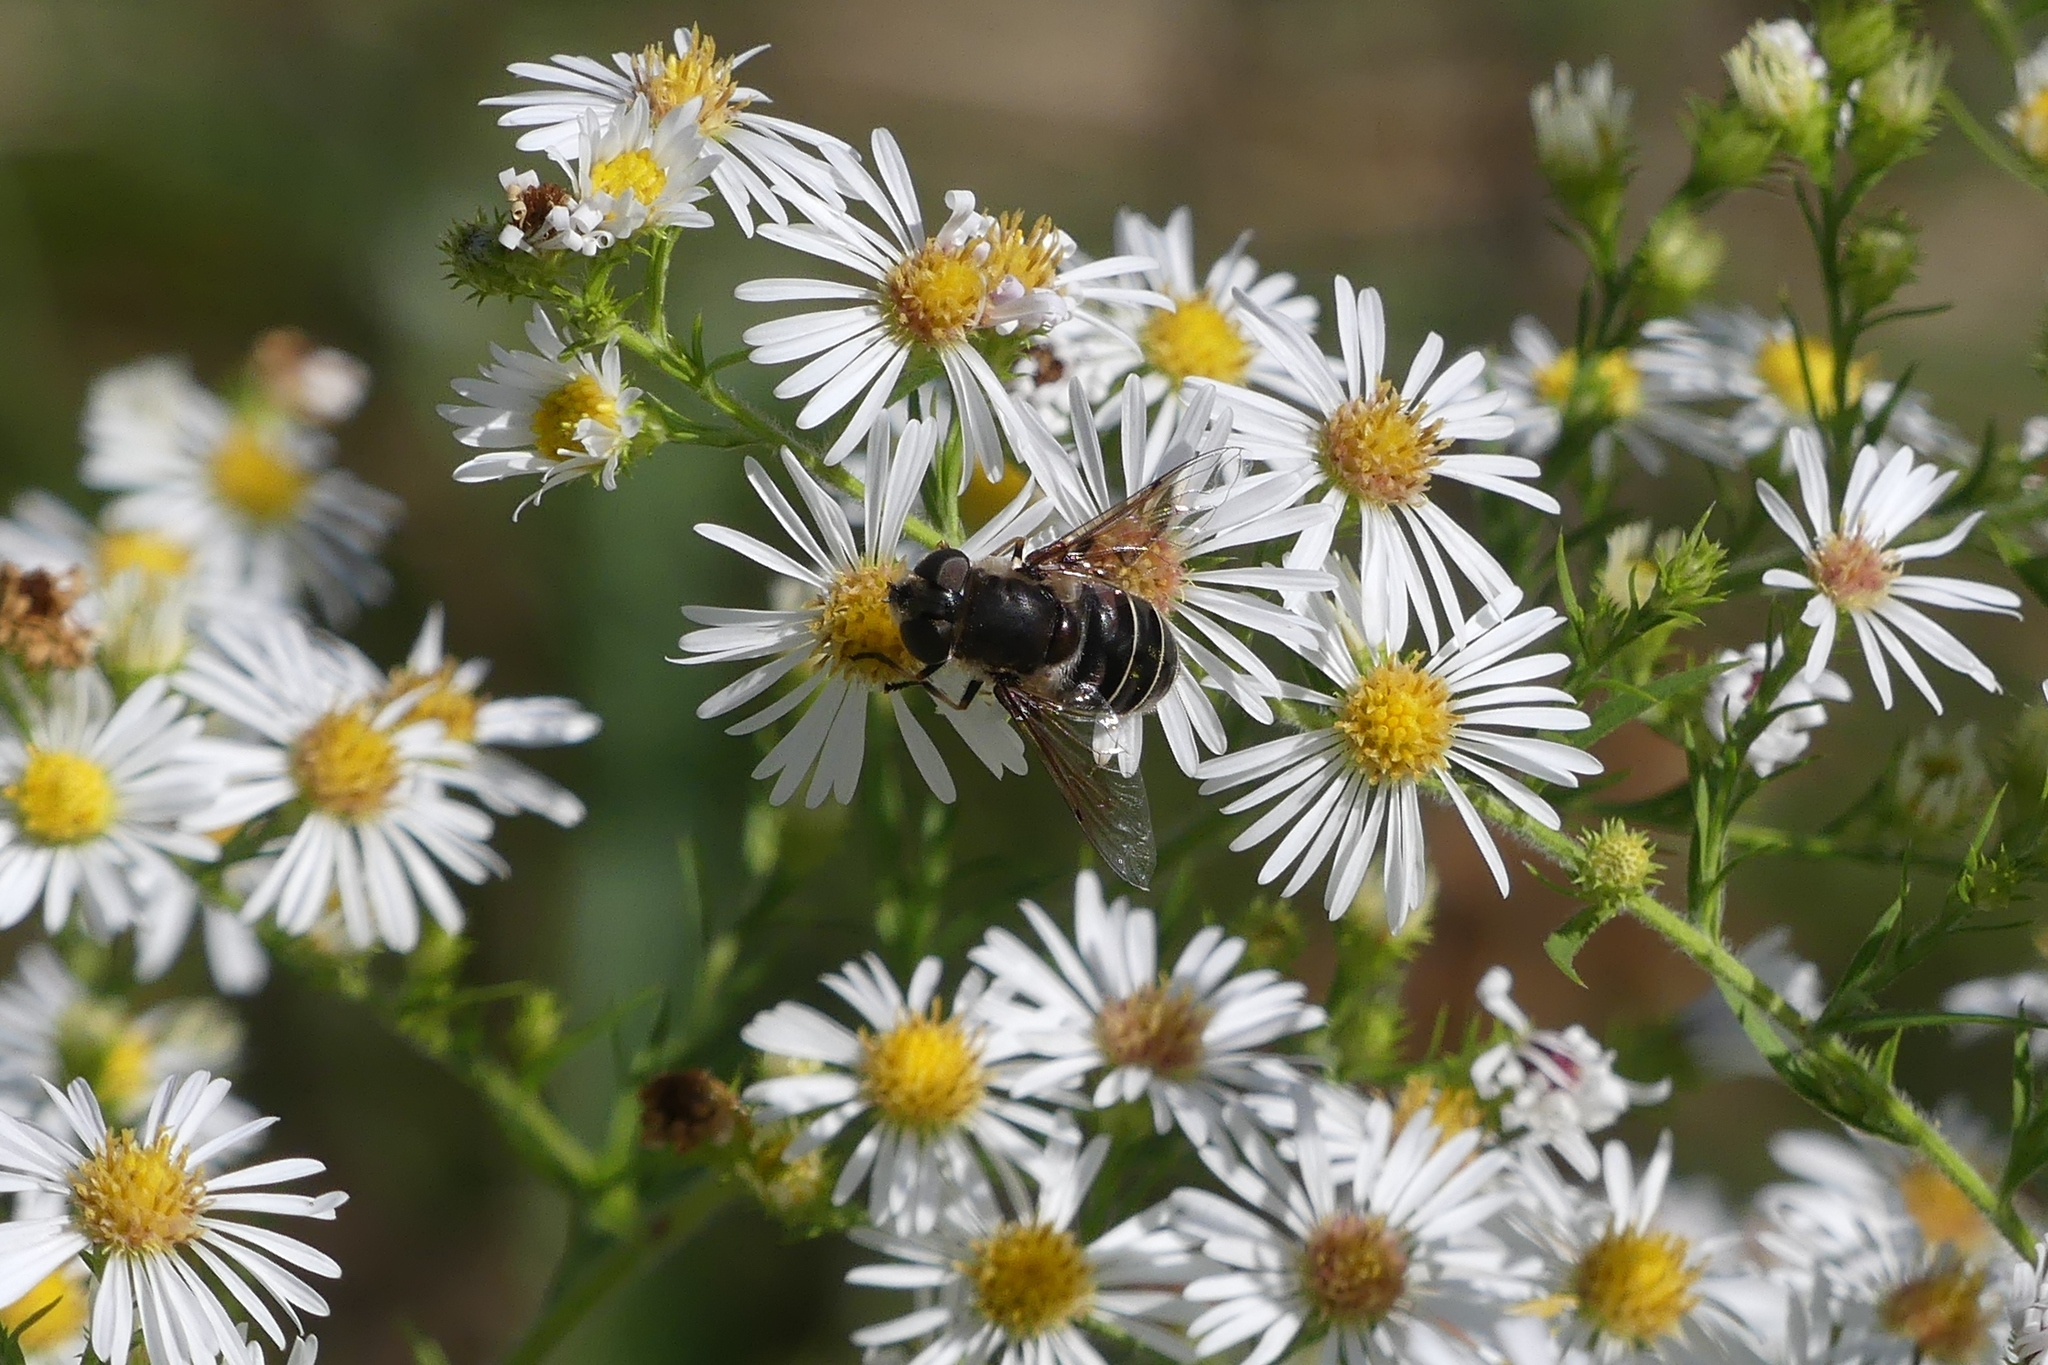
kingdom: Animalia
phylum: Arthropoda
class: Insecta
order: Diptera
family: Syrphidae
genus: Eristalis
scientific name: Eristalis dimidiata
